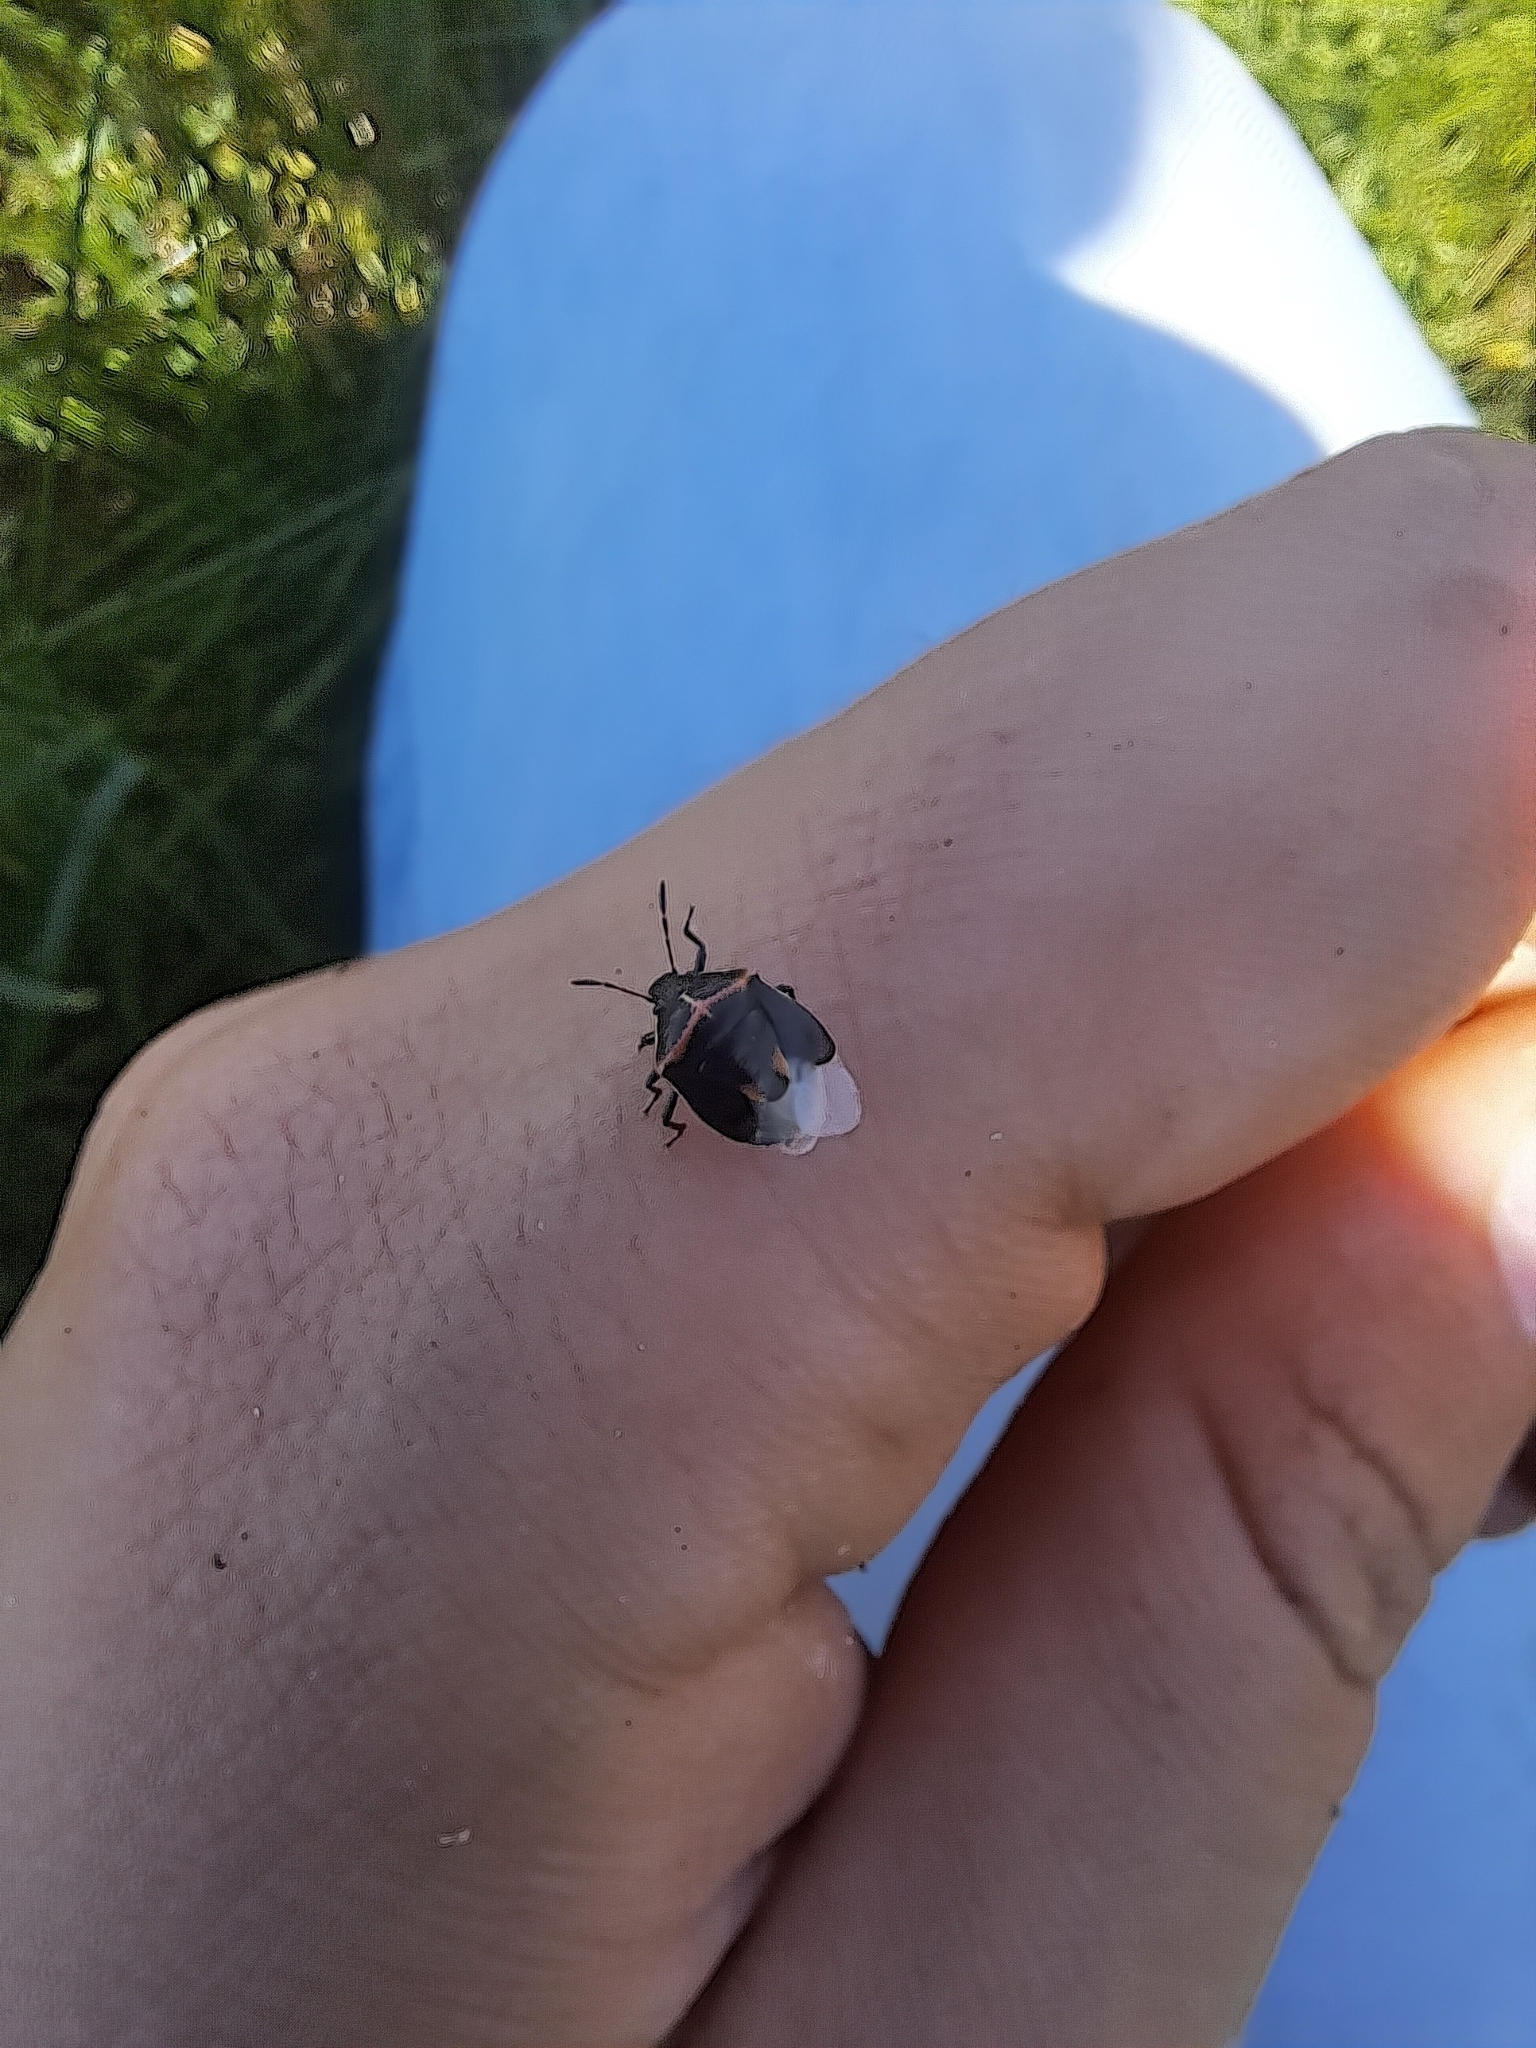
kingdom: Animalia
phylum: Arthropoda
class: Insecta
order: Hemiptera
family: Pentatomidae
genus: Cosmopepla
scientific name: Cosmopepla lintneriana
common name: Twice-stabbed stink bug
